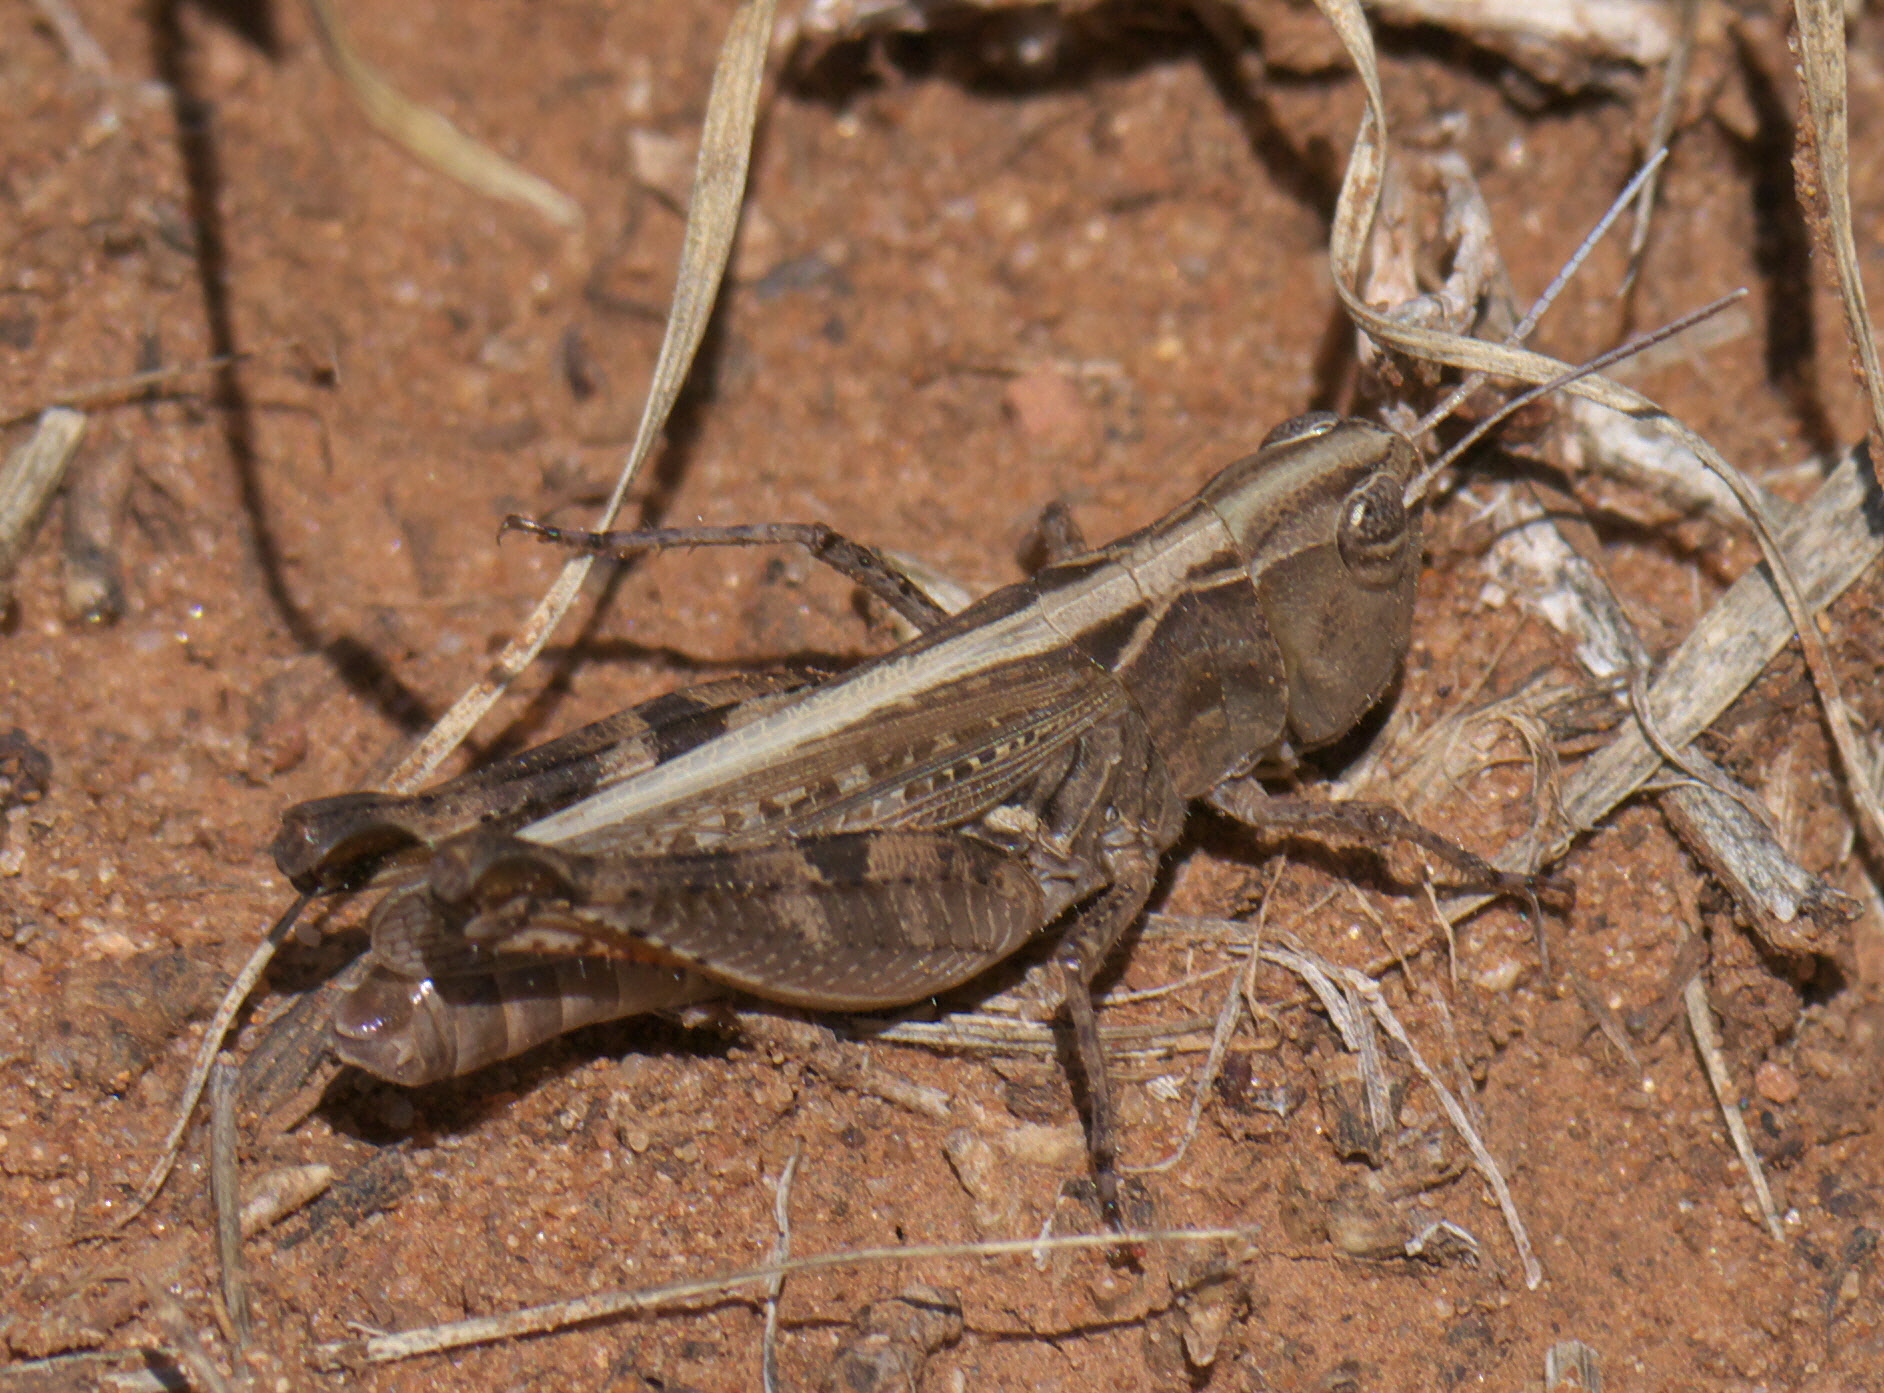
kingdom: Animalia
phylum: Arthropoda
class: Insecta
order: Orthoptera
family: Acrididae
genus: Ageneotettix
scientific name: Ageneotettix deorum
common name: White-whiskered grasshopper
